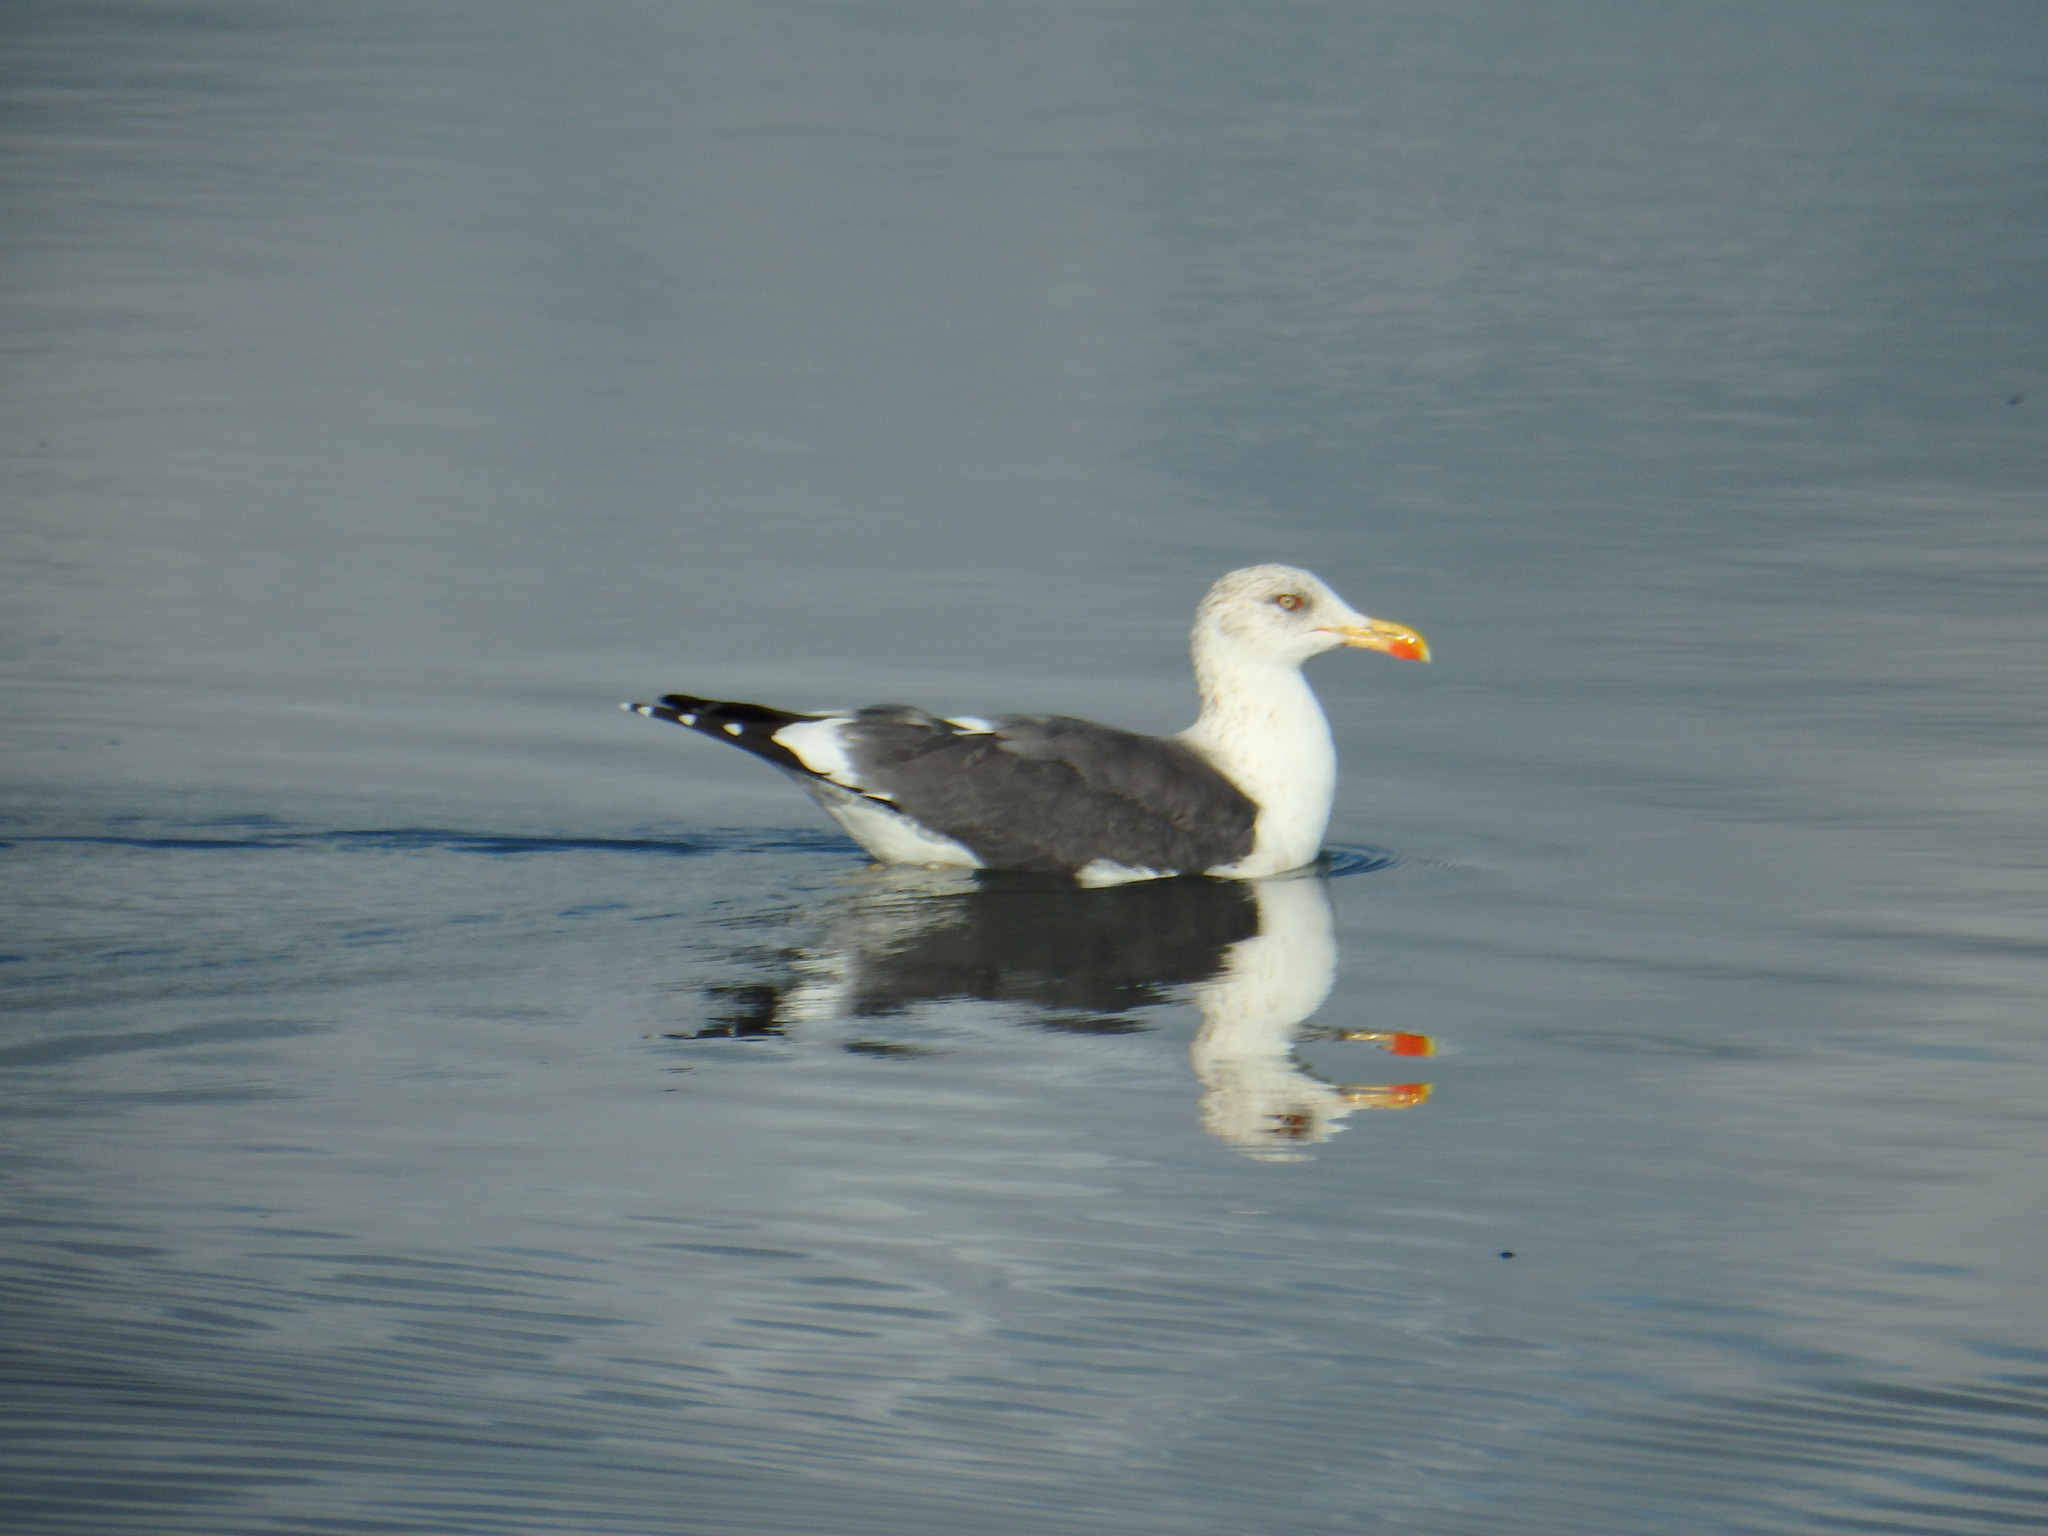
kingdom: Animalia
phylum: Chordata
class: Aves
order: Charadriiformes
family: Laridae
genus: Larus
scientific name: Larus fuscus
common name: Lesser black-backed gull
